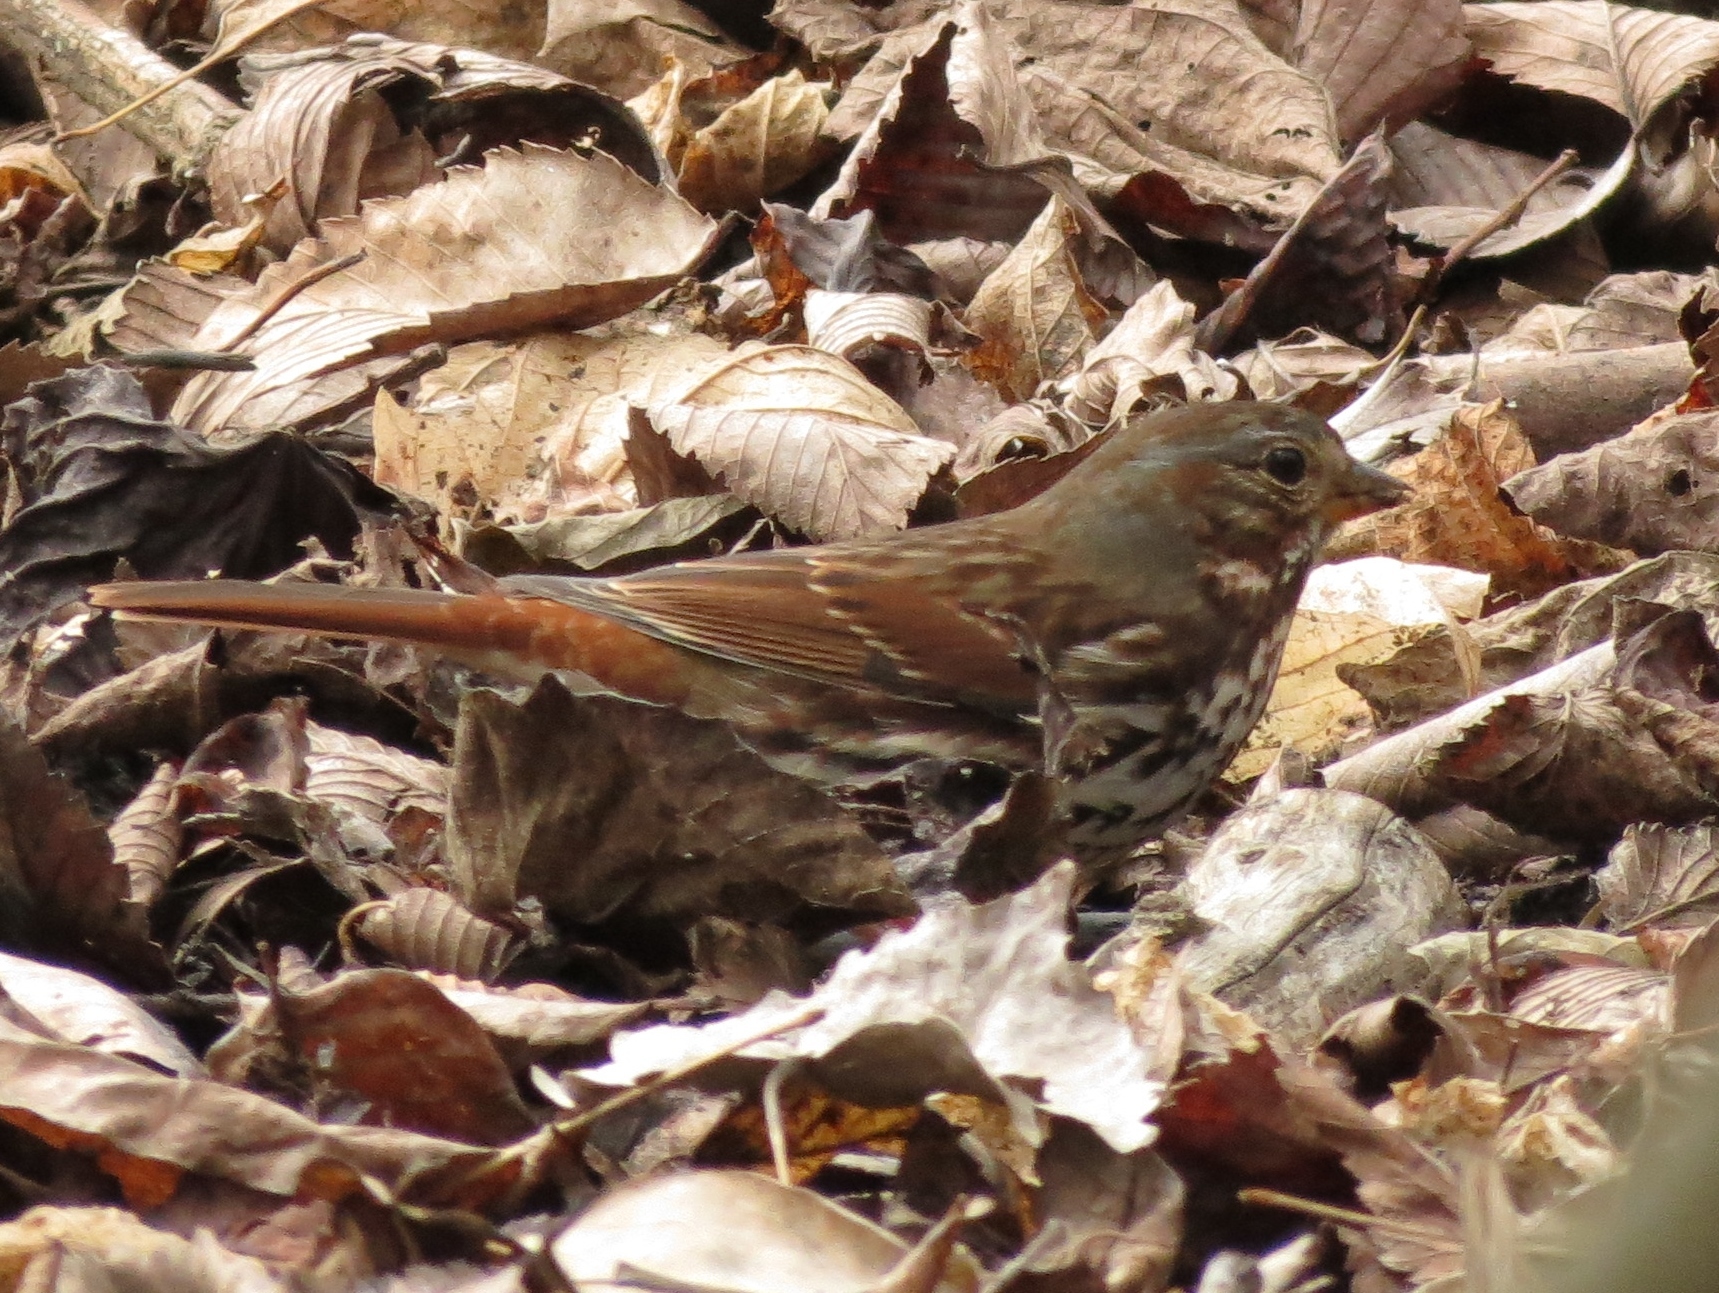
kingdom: Animalia
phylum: Chordata
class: Aves
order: Passeriformes
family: Passerellidae
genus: Passerella
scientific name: Passerella iliaca
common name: Fox sparrow
